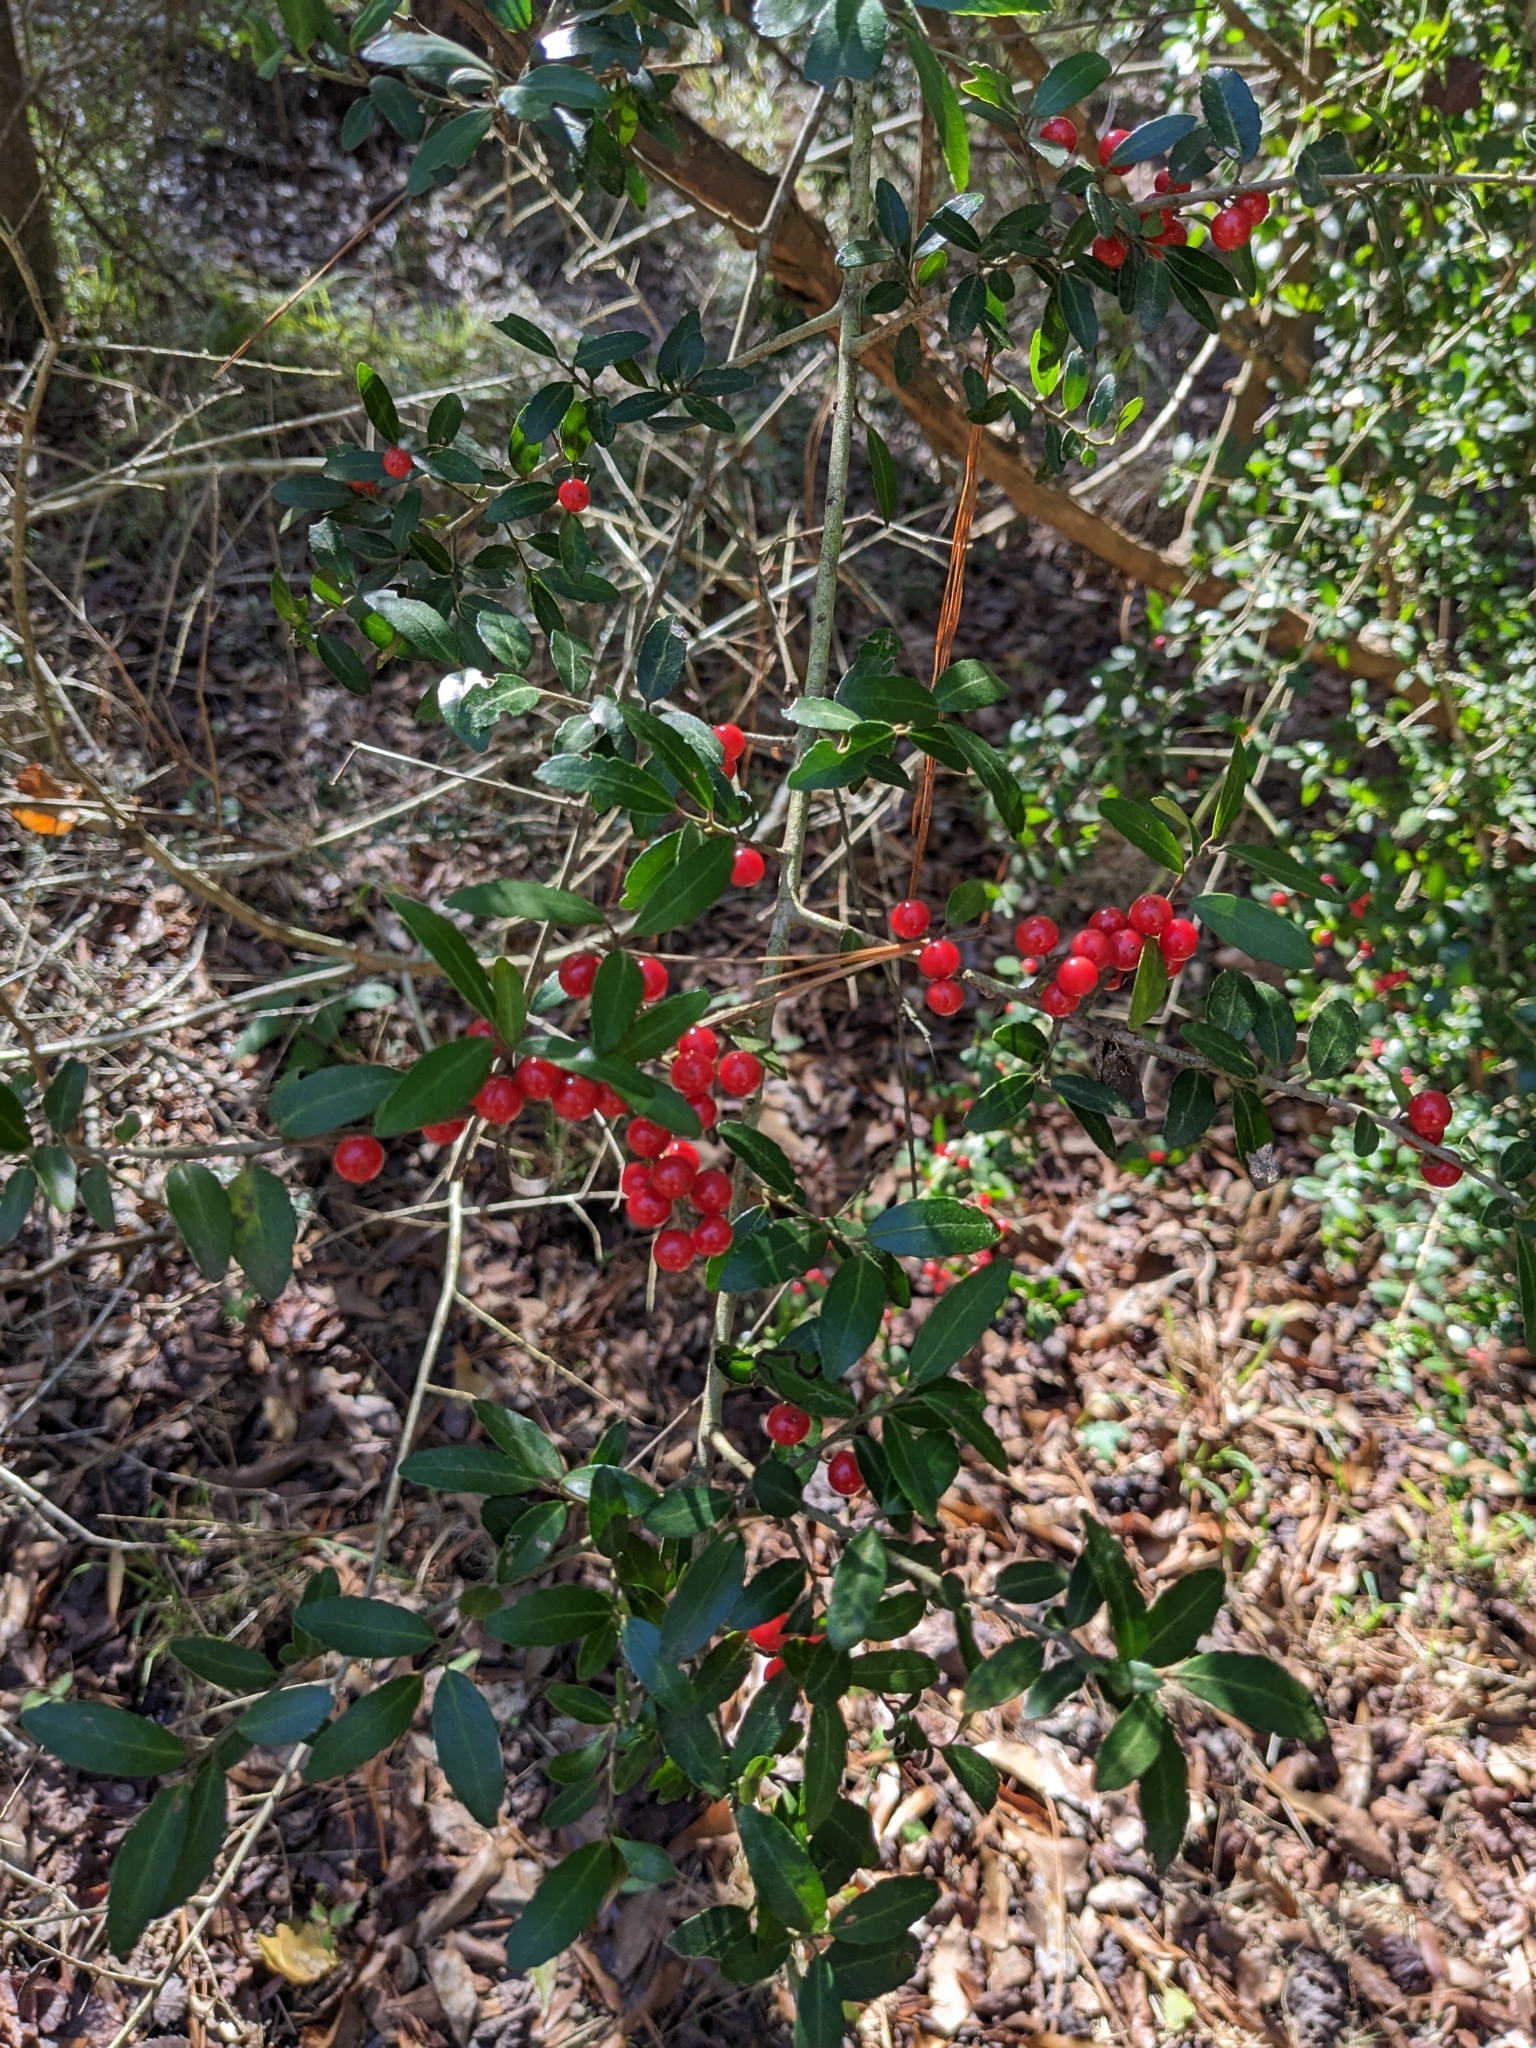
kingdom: Plantae
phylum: Tracheophyta
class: Magnoliopsida
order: Aquifoliales
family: Aquifoliaceae
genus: Ilex
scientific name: Ilex vomitoria
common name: Yaupon holly
